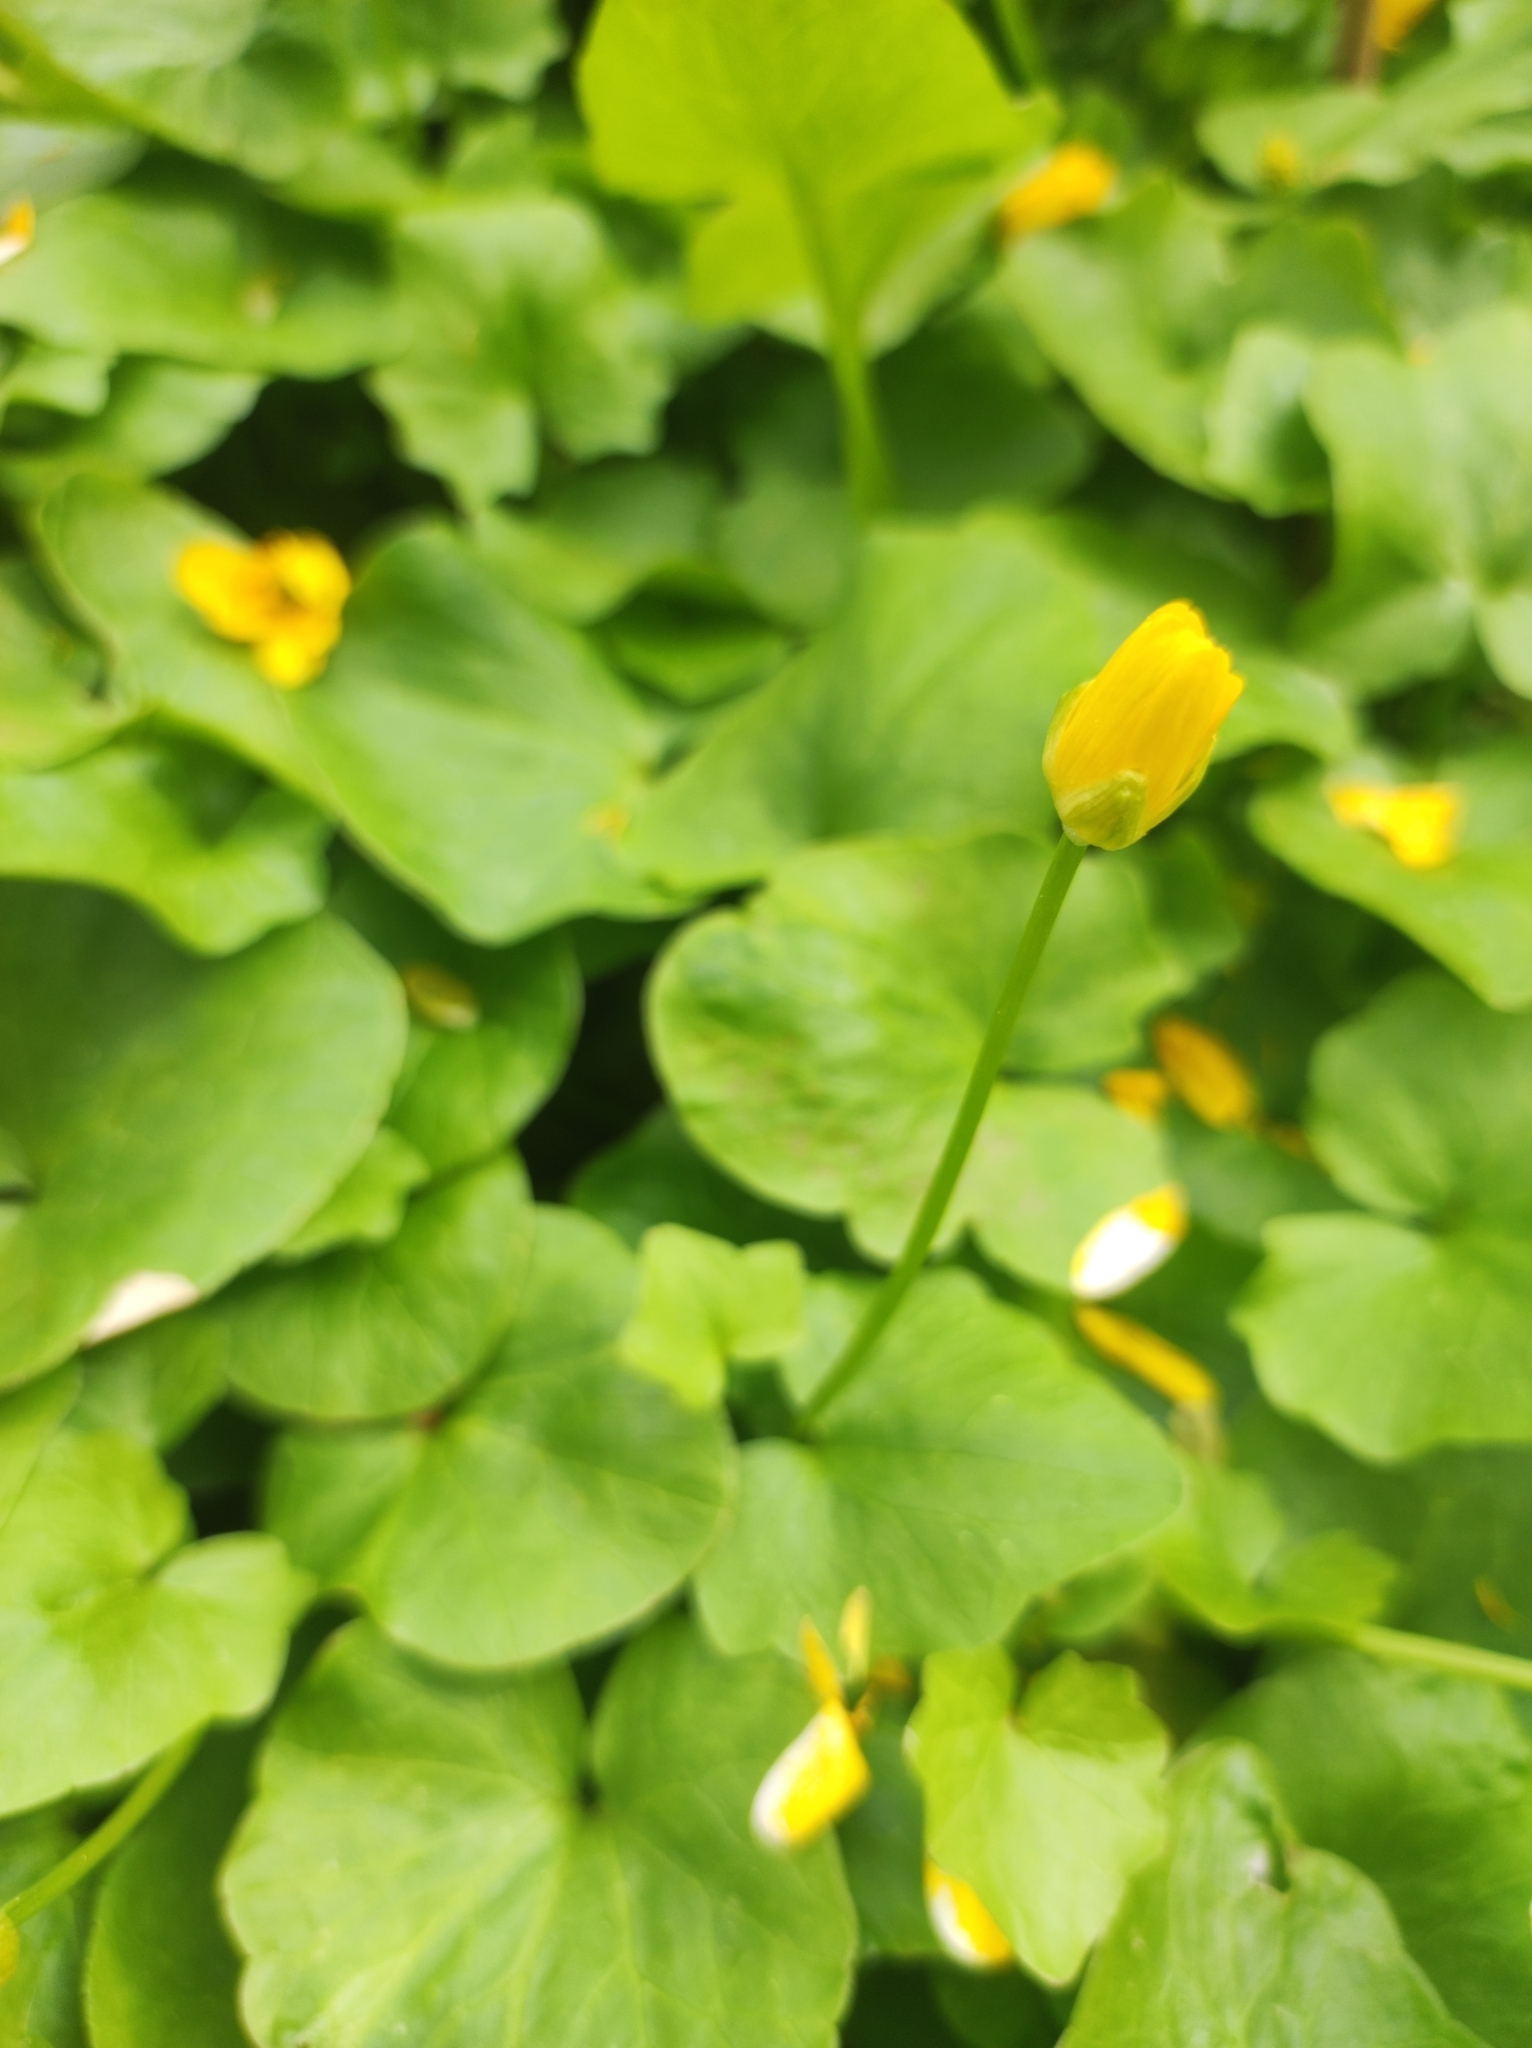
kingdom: Plantae
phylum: Tracheophyta
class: Magnoliopsida
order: Ranunculales
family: Ranunculaceae
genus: Ficaria
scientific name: Ficaria verna
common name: Lesser celandine
